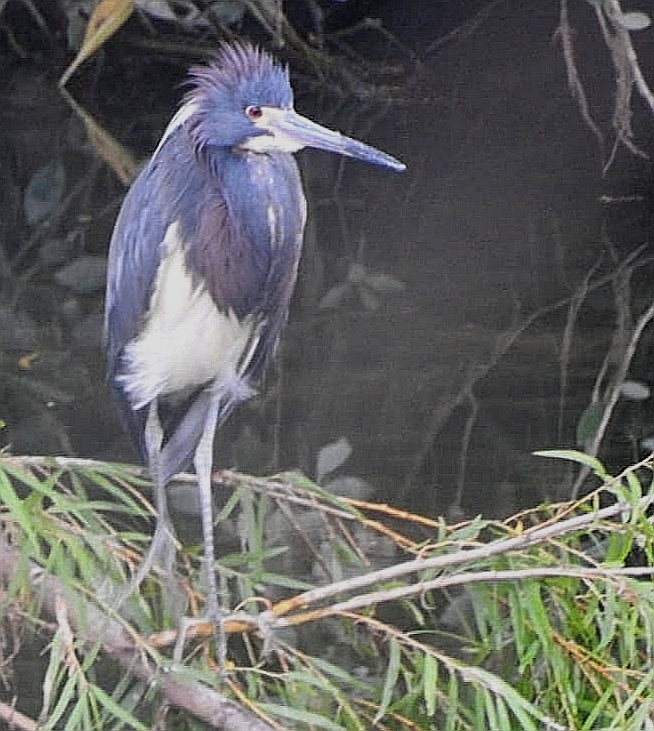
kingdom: Animalia
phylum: Chordata
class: Aves
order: Pelecaniformes
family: Ardeidae
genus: Egretta
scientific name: Egretta tricolor
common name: Tricolored heron
